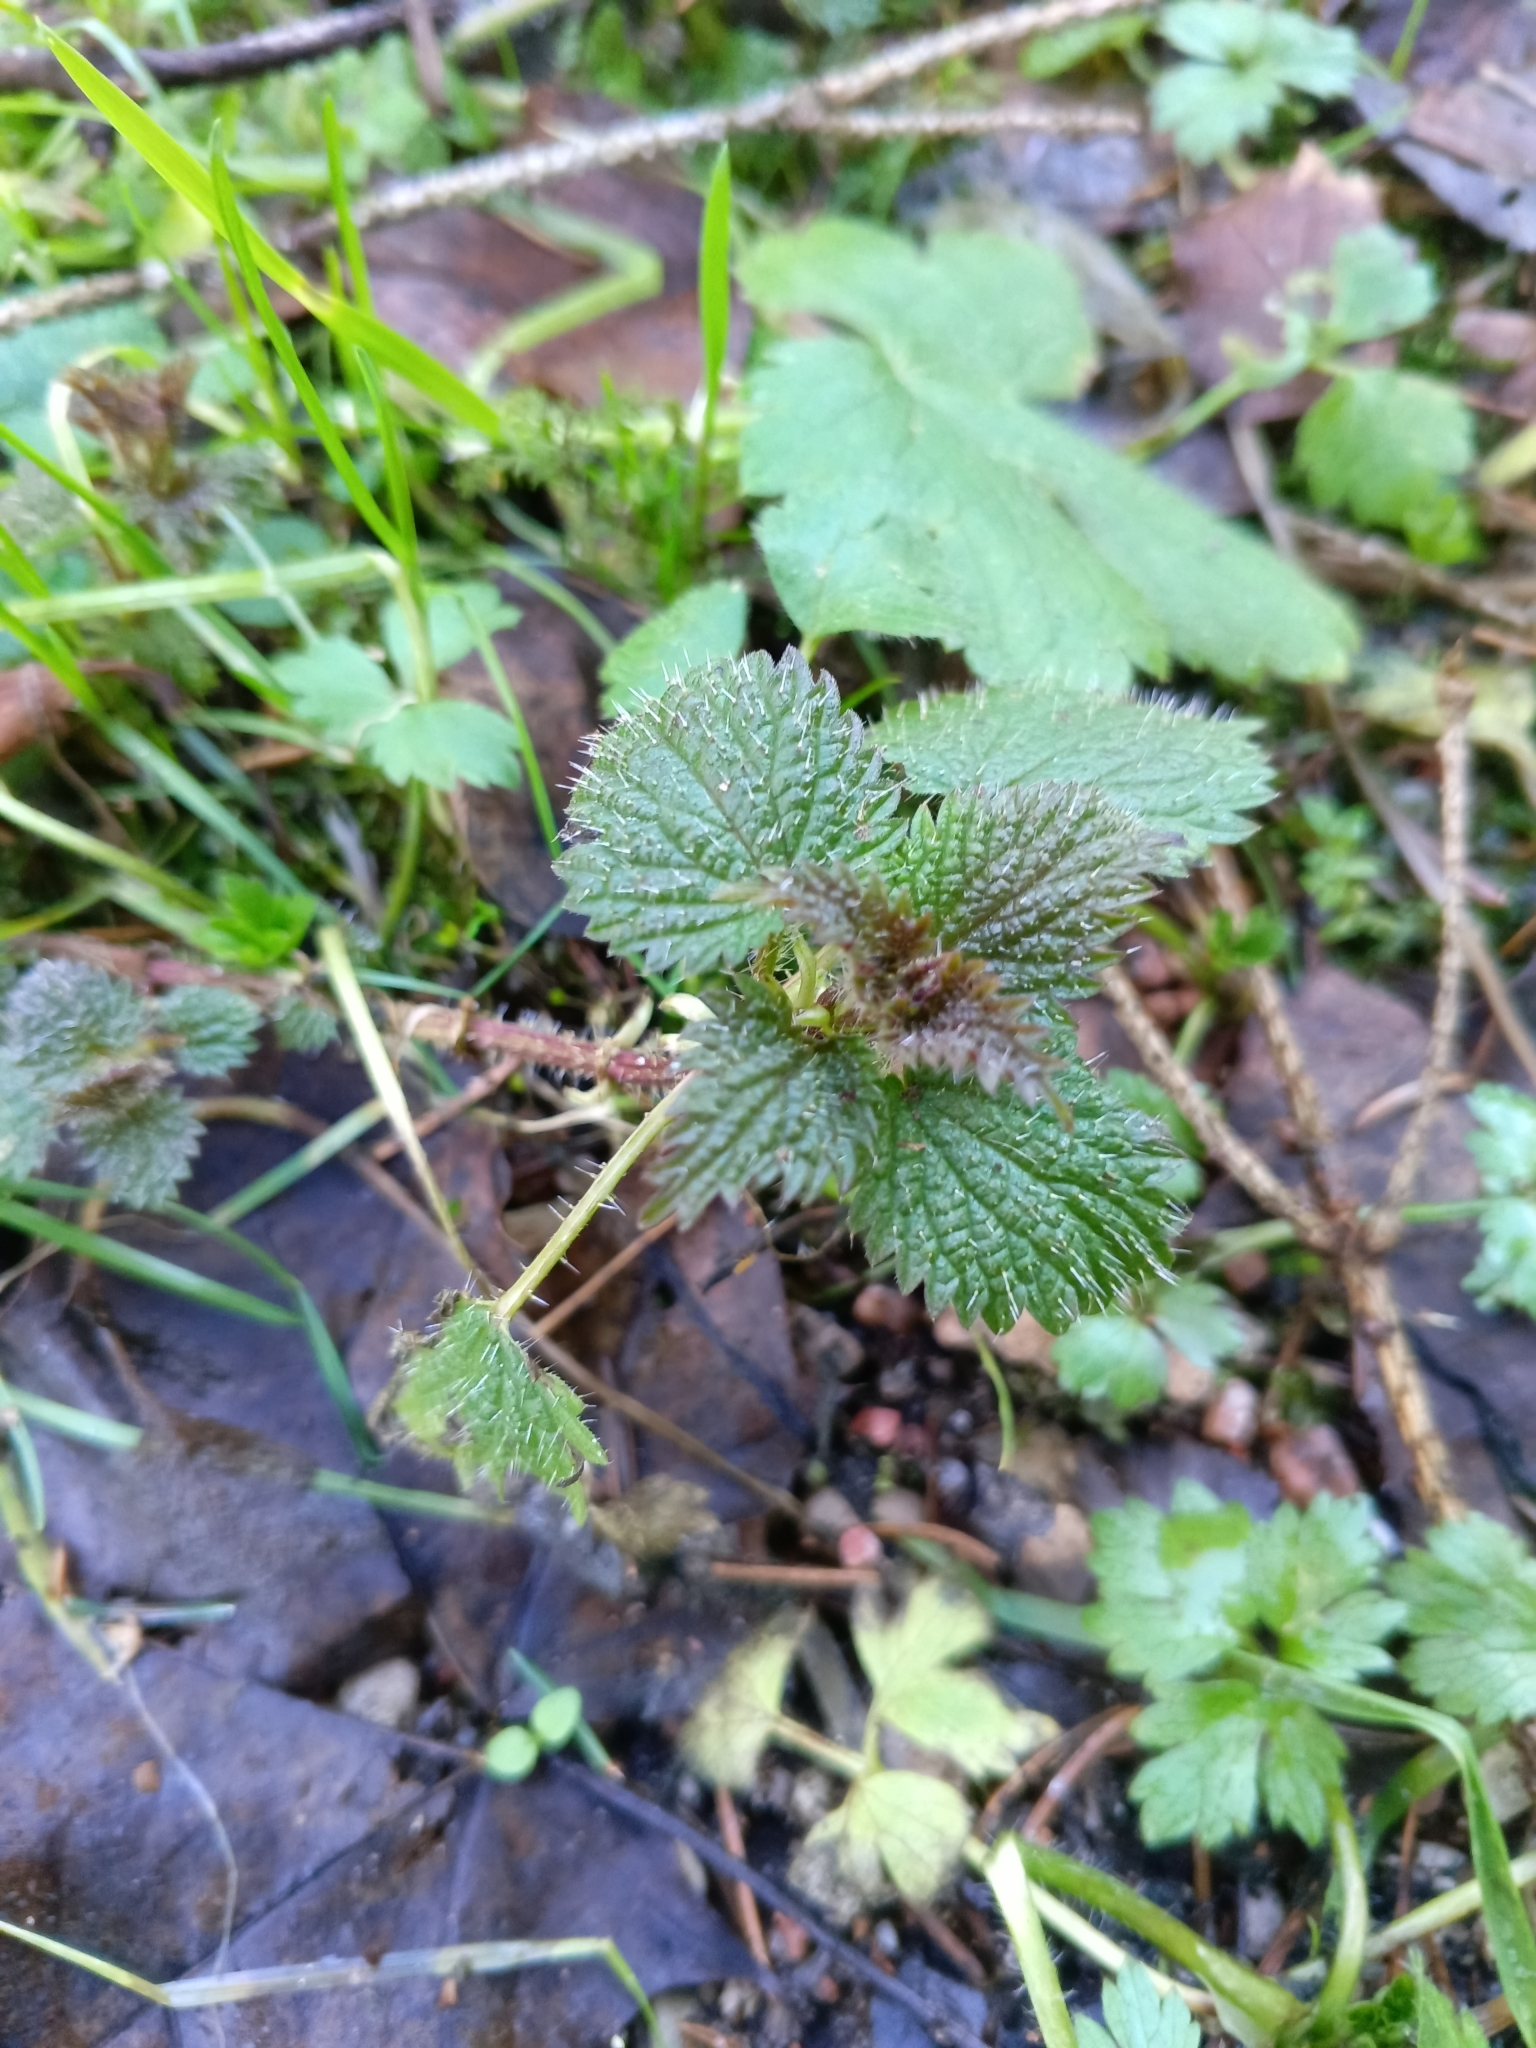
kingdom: Plantae
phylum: Tracheophyta
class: Magnoliopsida
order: Rosales
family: Urticaceae
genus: Urtica
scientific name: Urtica dioica
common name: Common nettle
